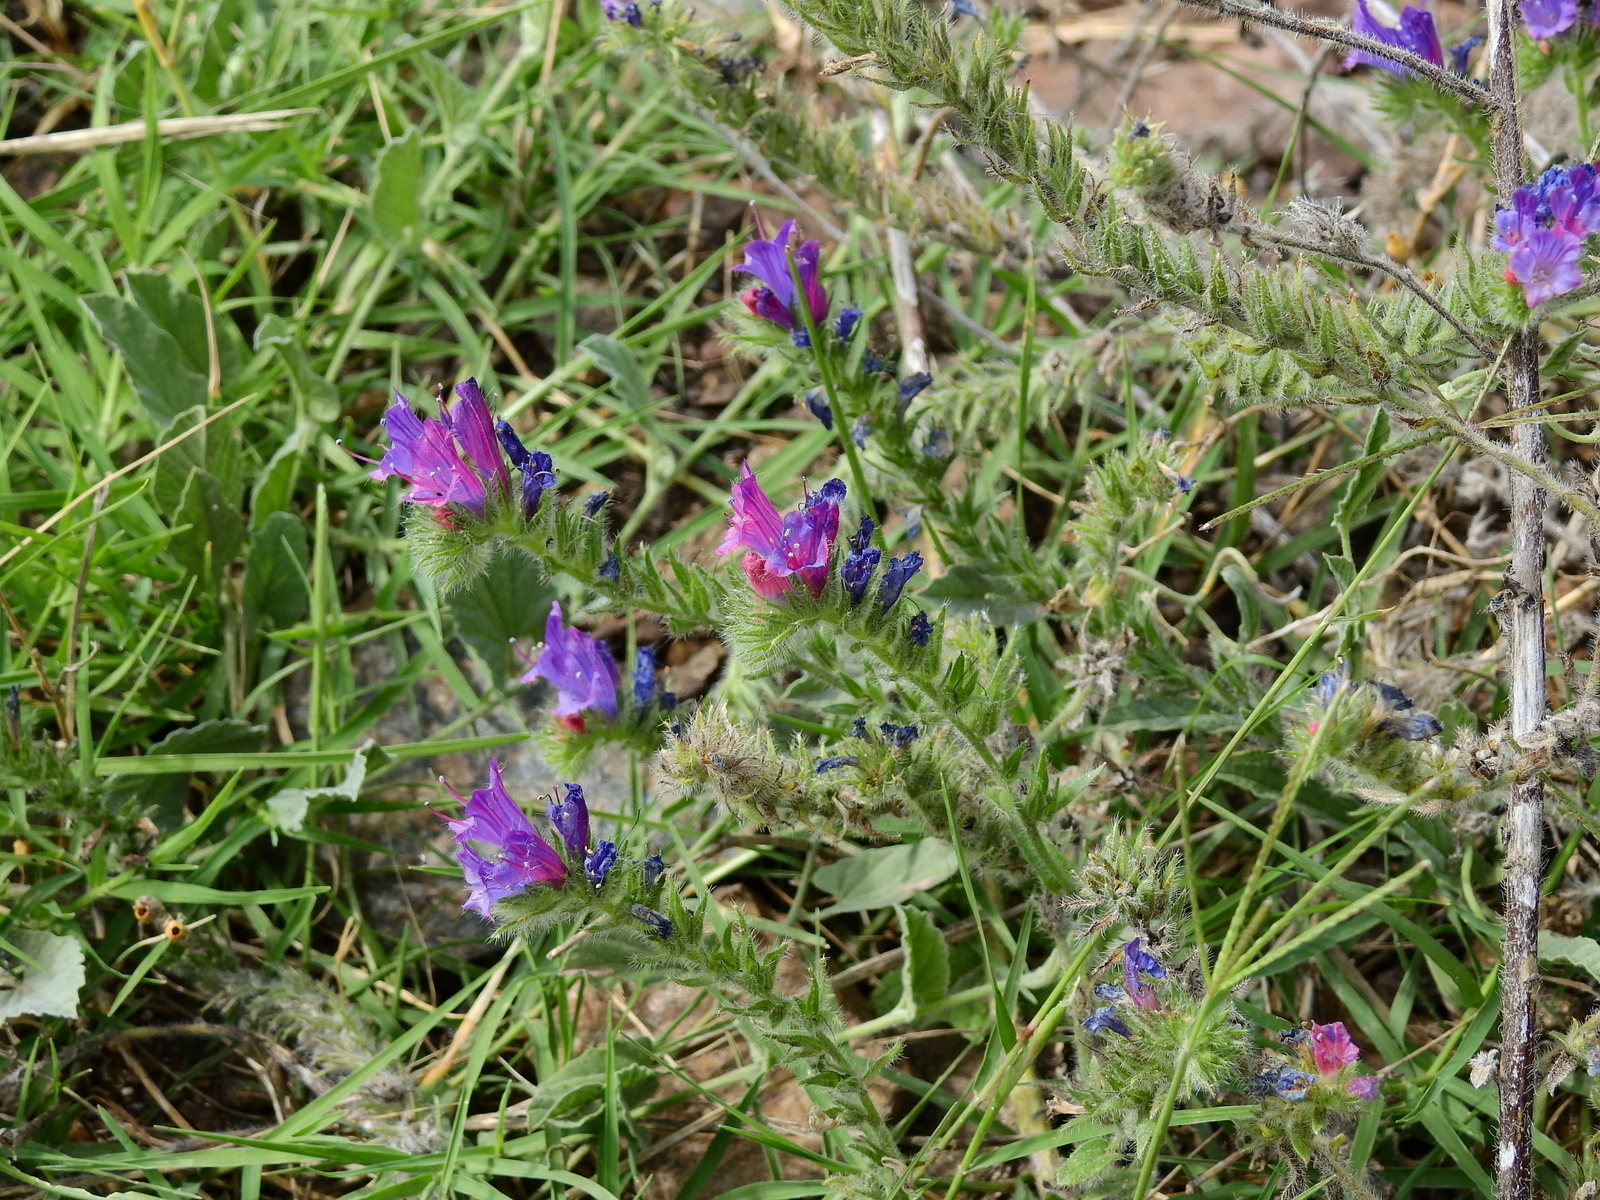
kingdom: Plantae
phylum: Tracheophyta
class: Magnoliopsida
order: Boraginales
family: Boraginaceae
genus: Echium
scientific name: Echium plantagineum
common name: Purple viper's-bugloss
